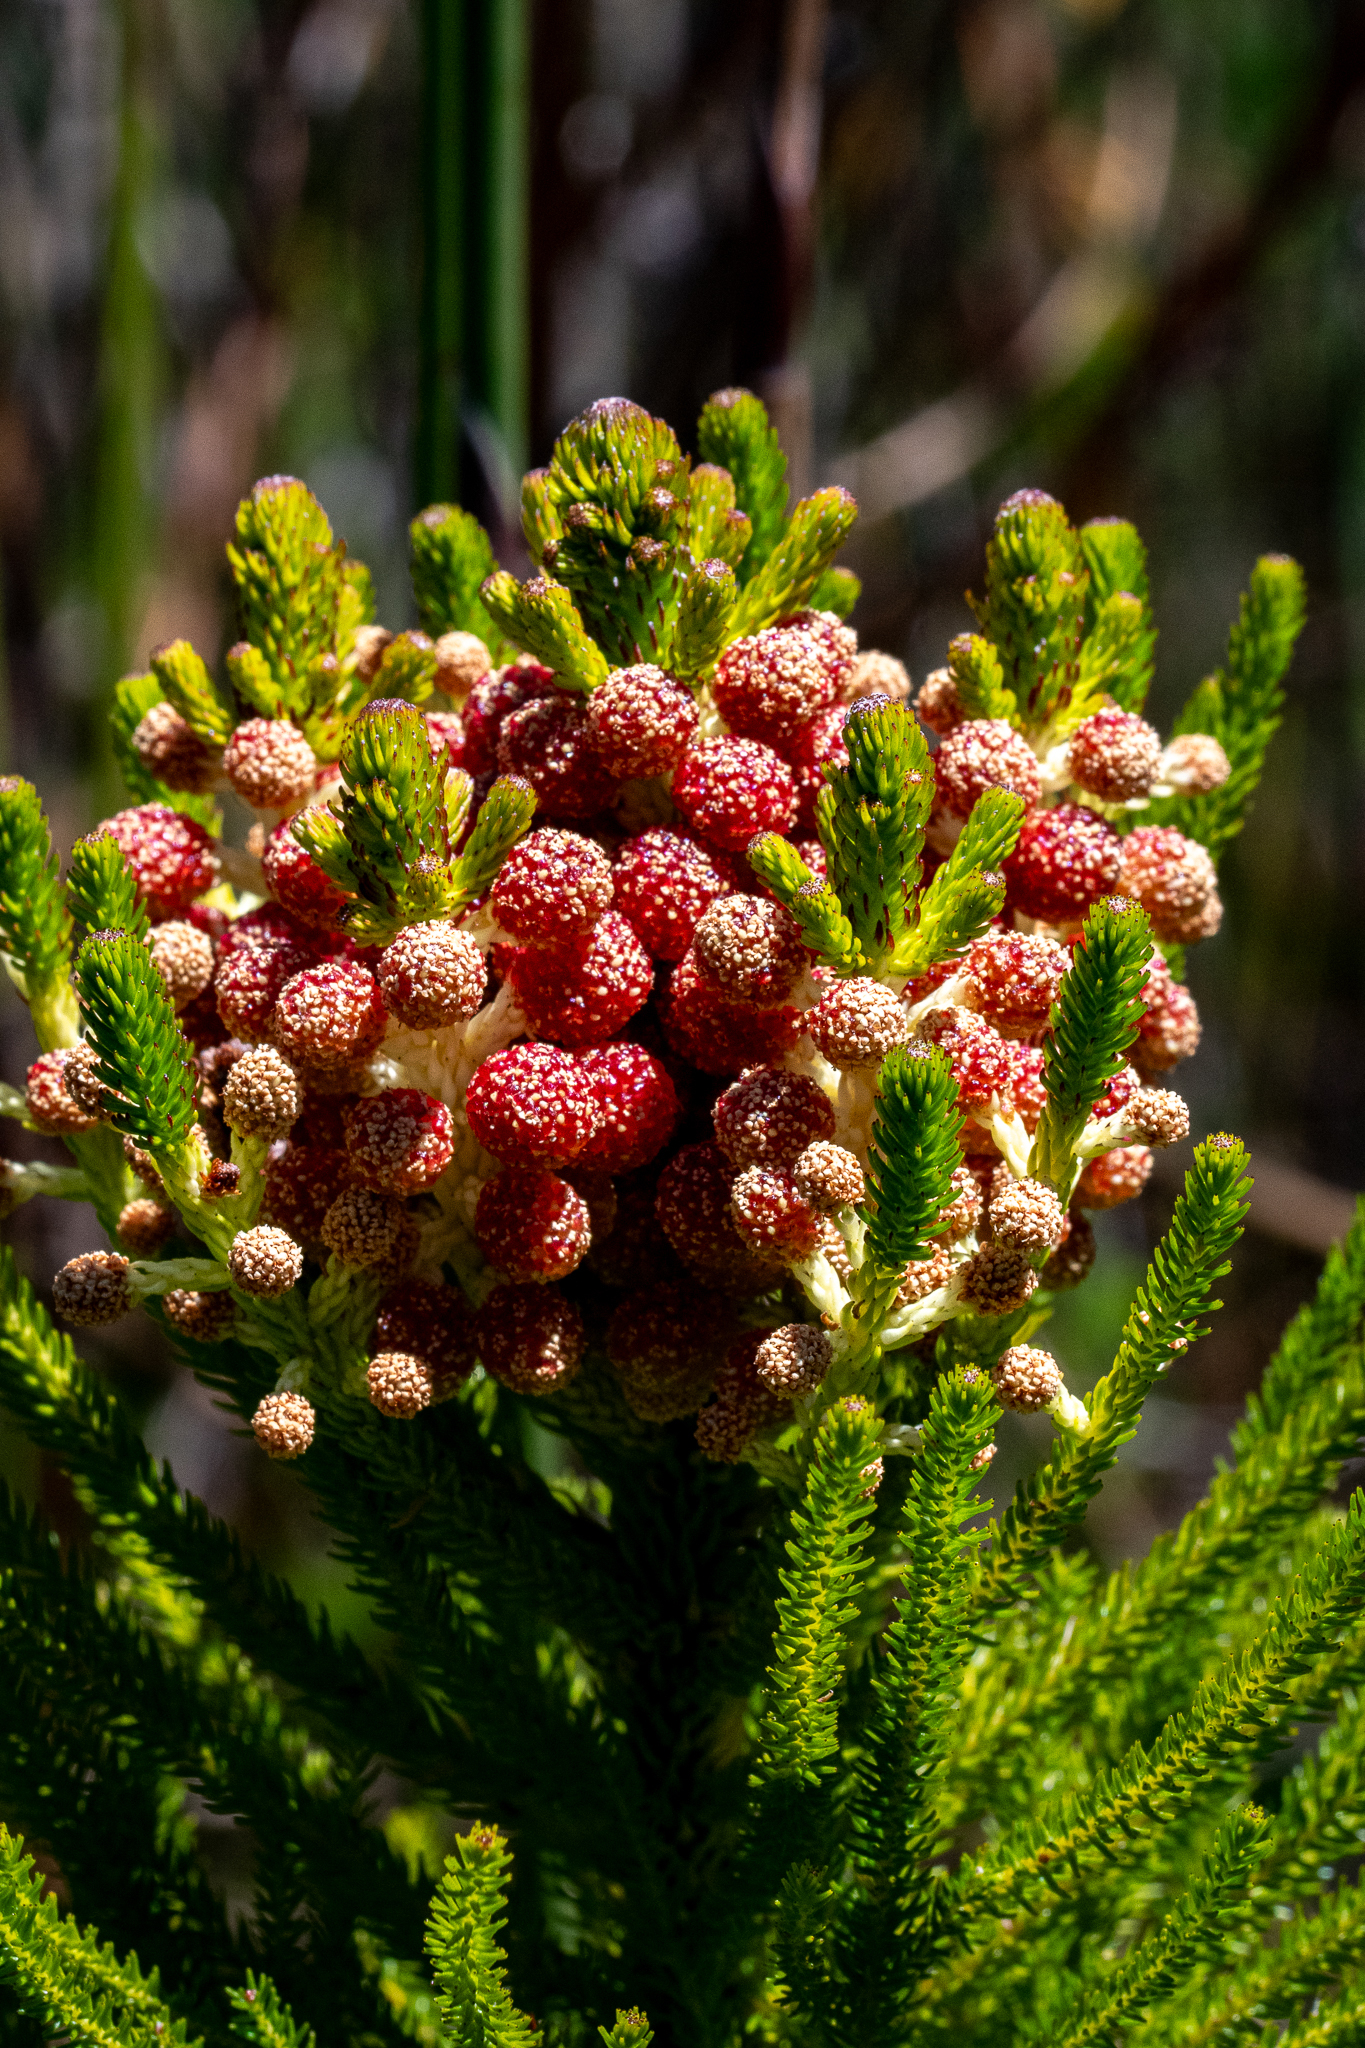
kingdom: Plantae
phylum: Tracheophyta
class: Magnoliopsida
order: Bruniales
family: Bruniaceae
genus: Berzelia
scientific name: Berzelia alopecurioides
